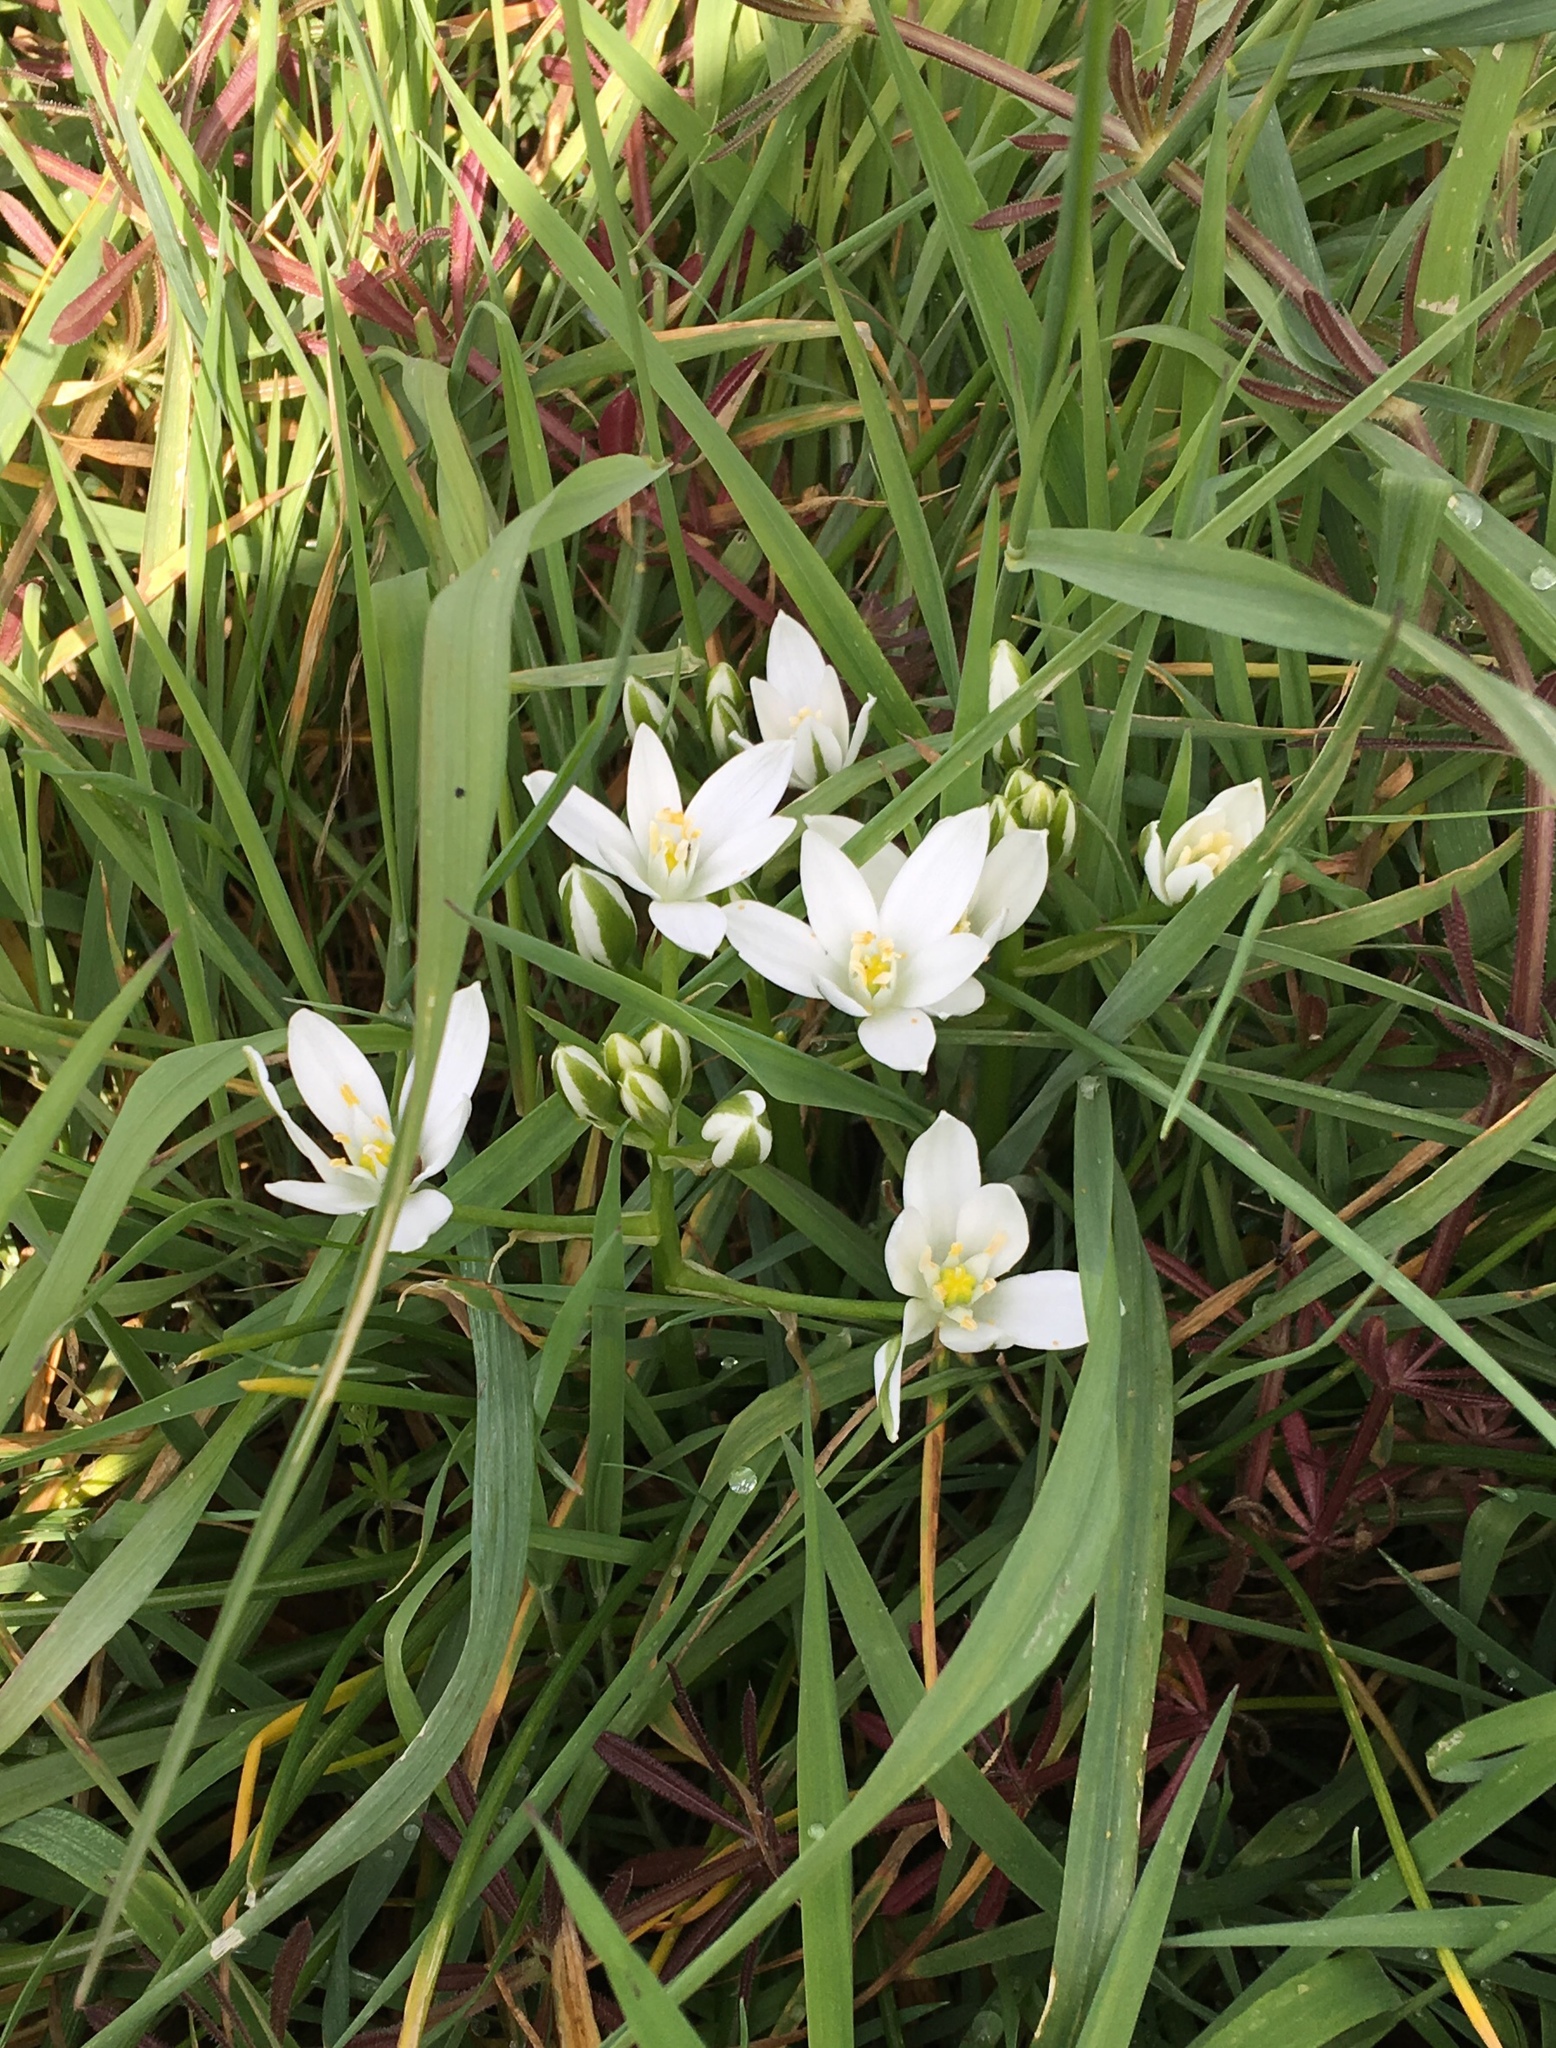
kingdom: Plantae
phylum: Tracheophyta
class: Liliopsida
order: Asparagales
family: Asparagaceae
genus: Ornithogalum
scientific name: Ornithogalum umbellatum
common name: Garden star-of-bethlehem
